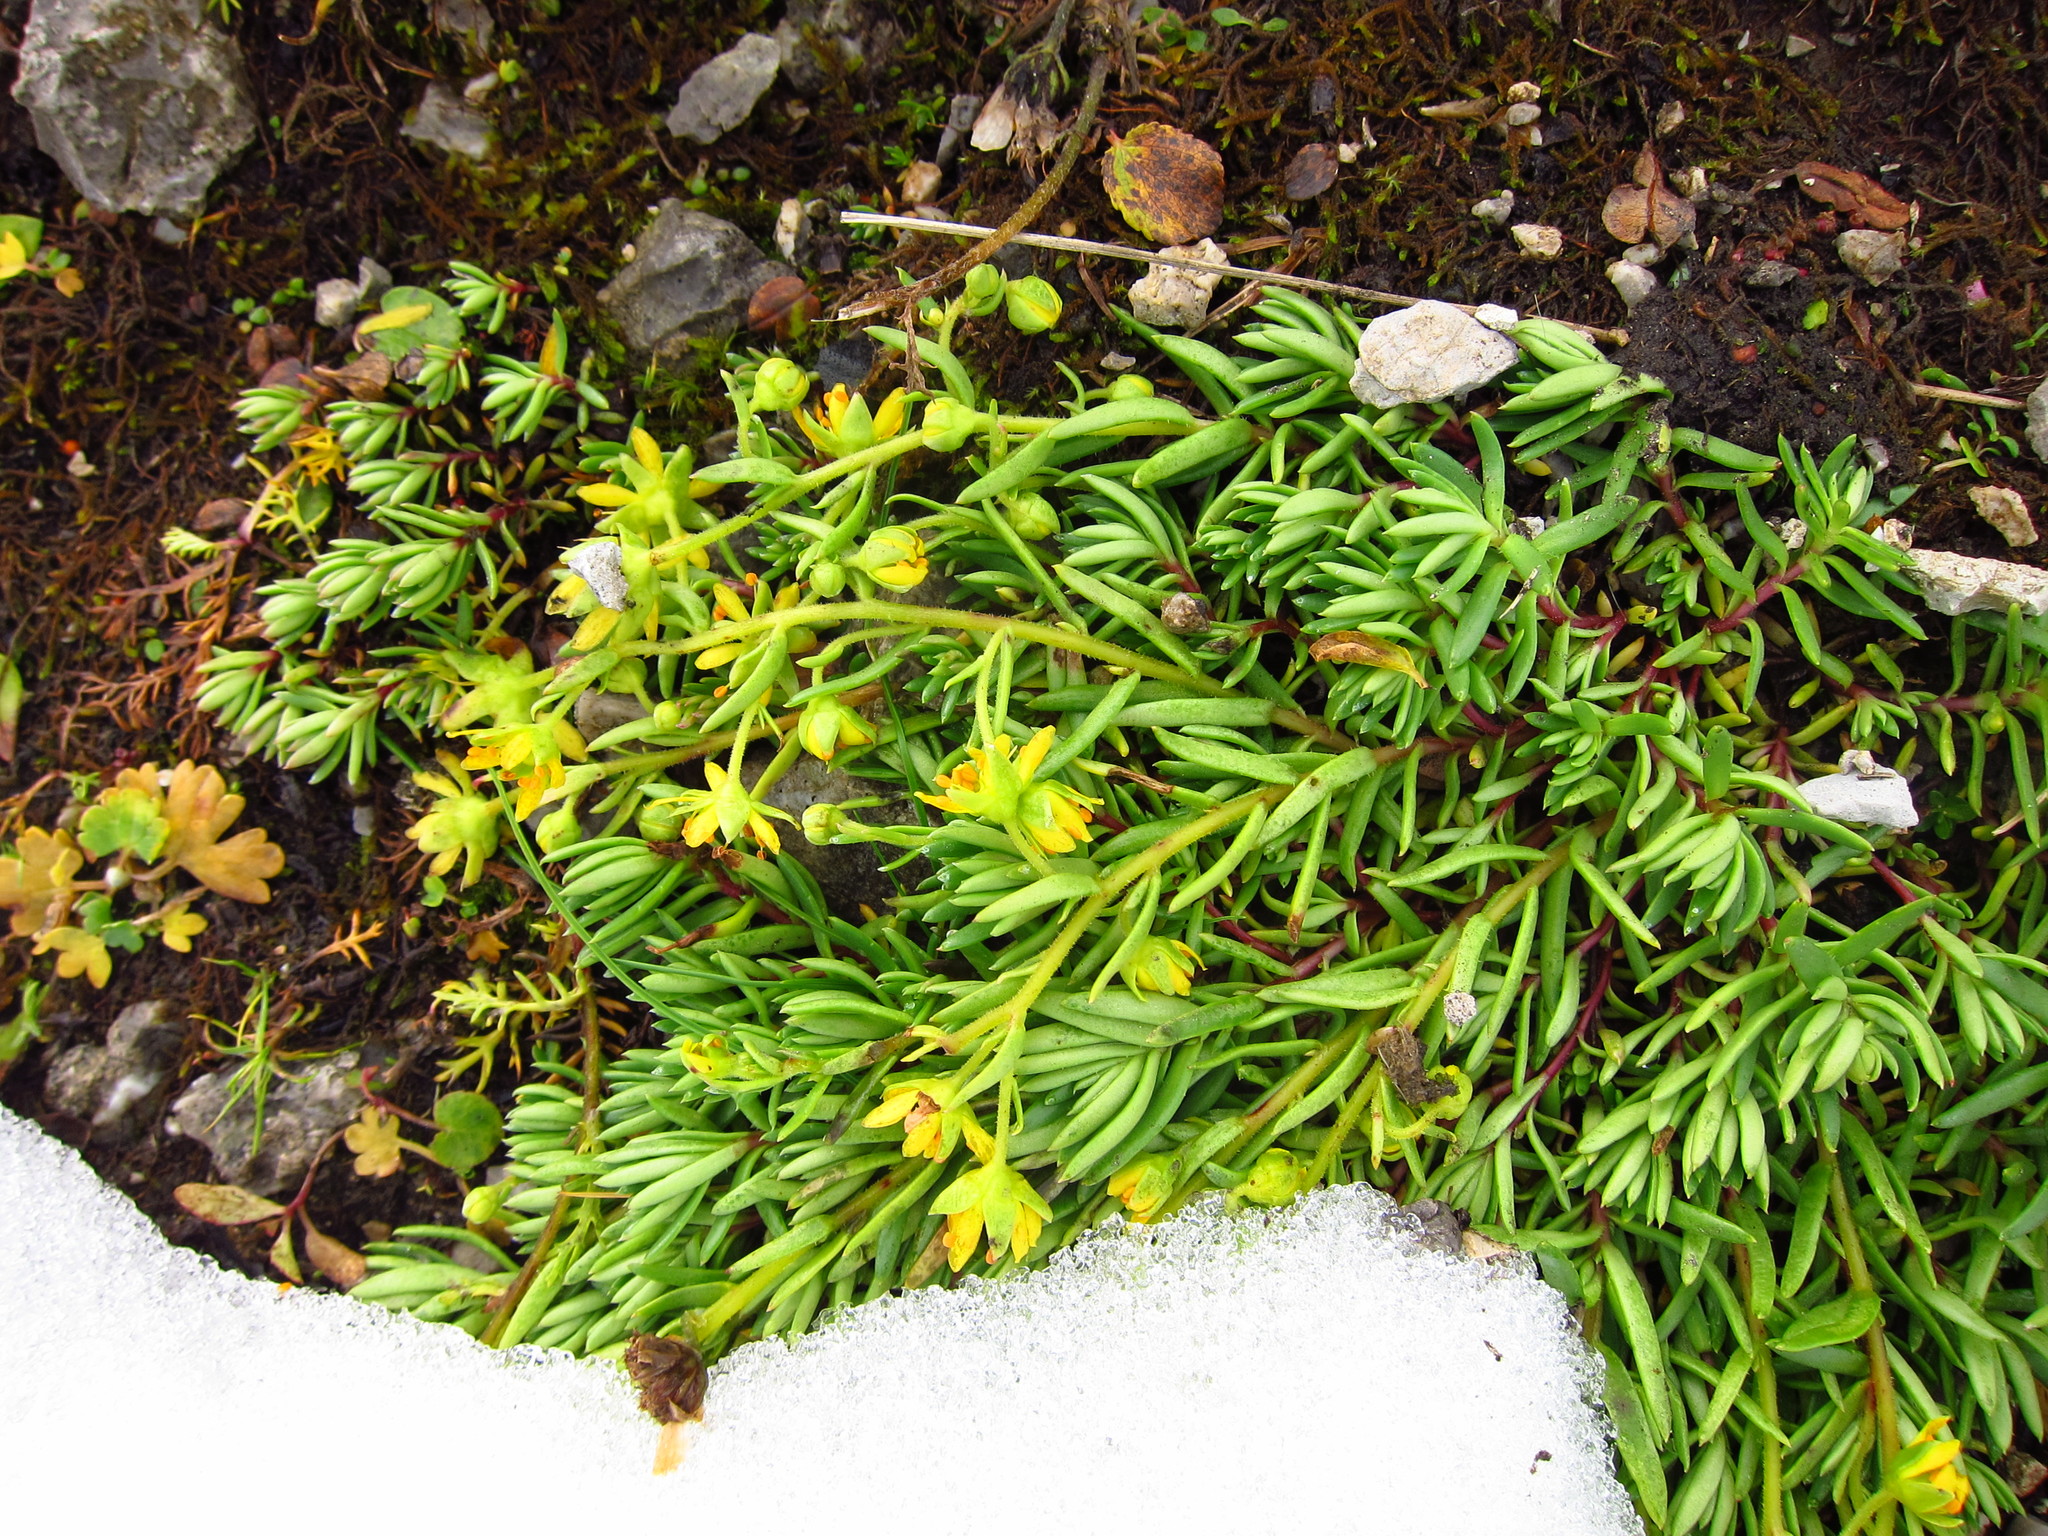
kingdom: Plantae
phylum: Tracheophyta
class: Magnoliopsida
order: Saxifragales
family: Saxifragaceae
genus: Saxifraga
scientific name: Saxifraga aizoides
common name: Yellow mountain saxifrage
